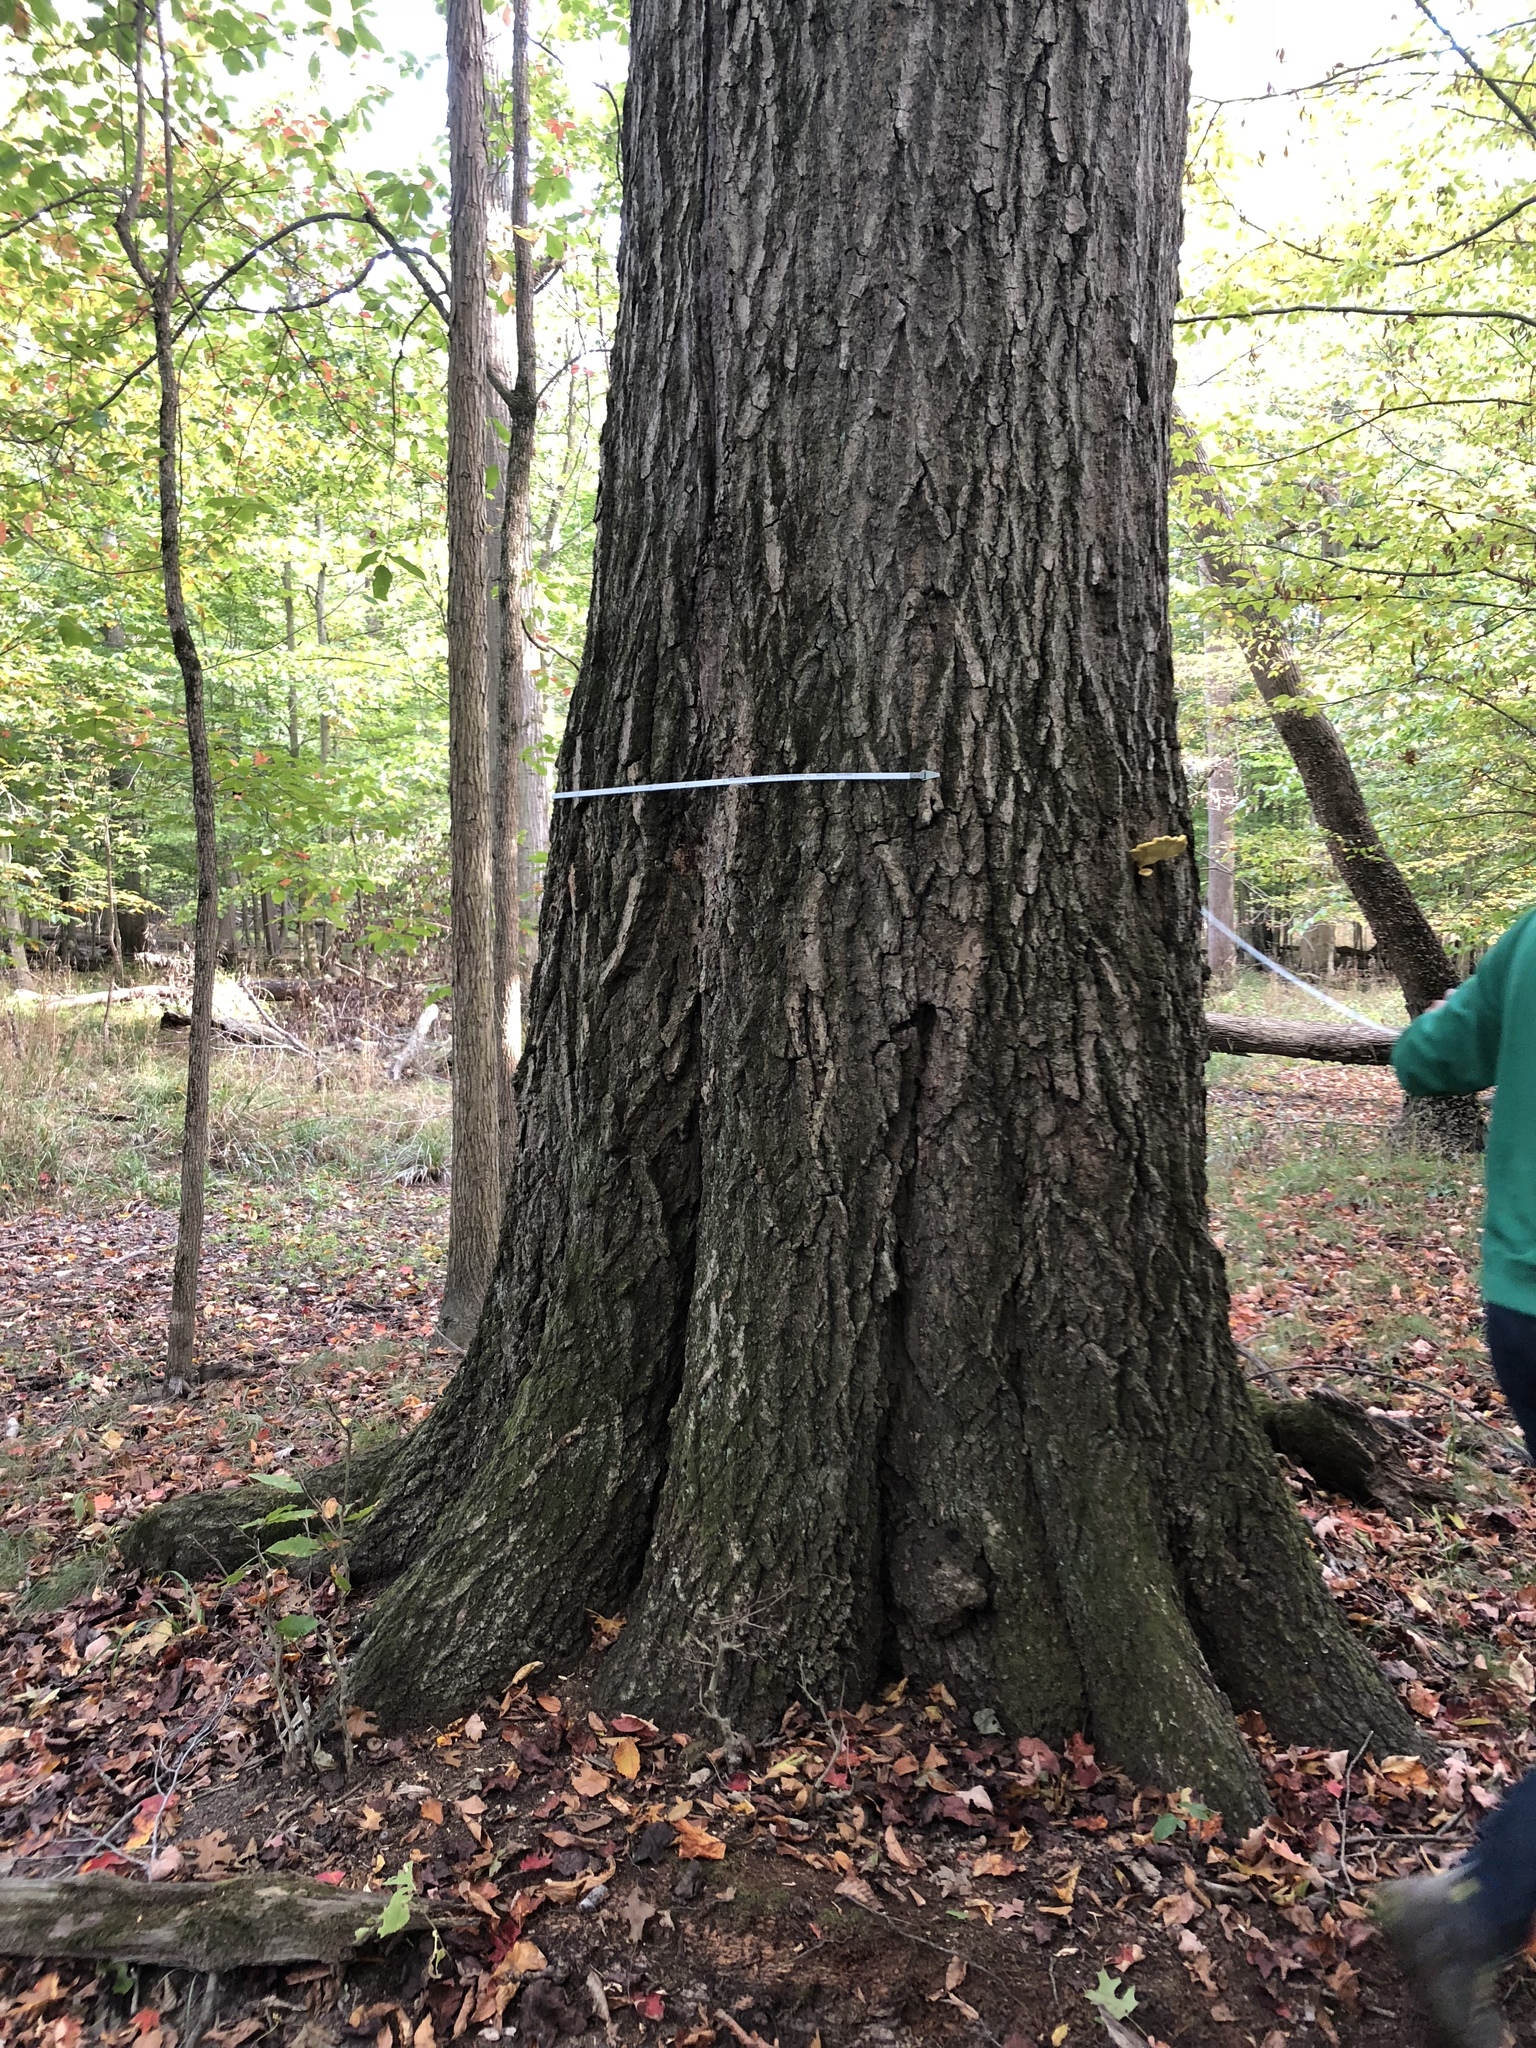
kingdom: Plantae
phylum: Tracheophyta
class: Magnoliopsida
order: Fagales
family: Fagaceae
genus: Quercus
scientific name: Quercus rubra
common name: Red oak
